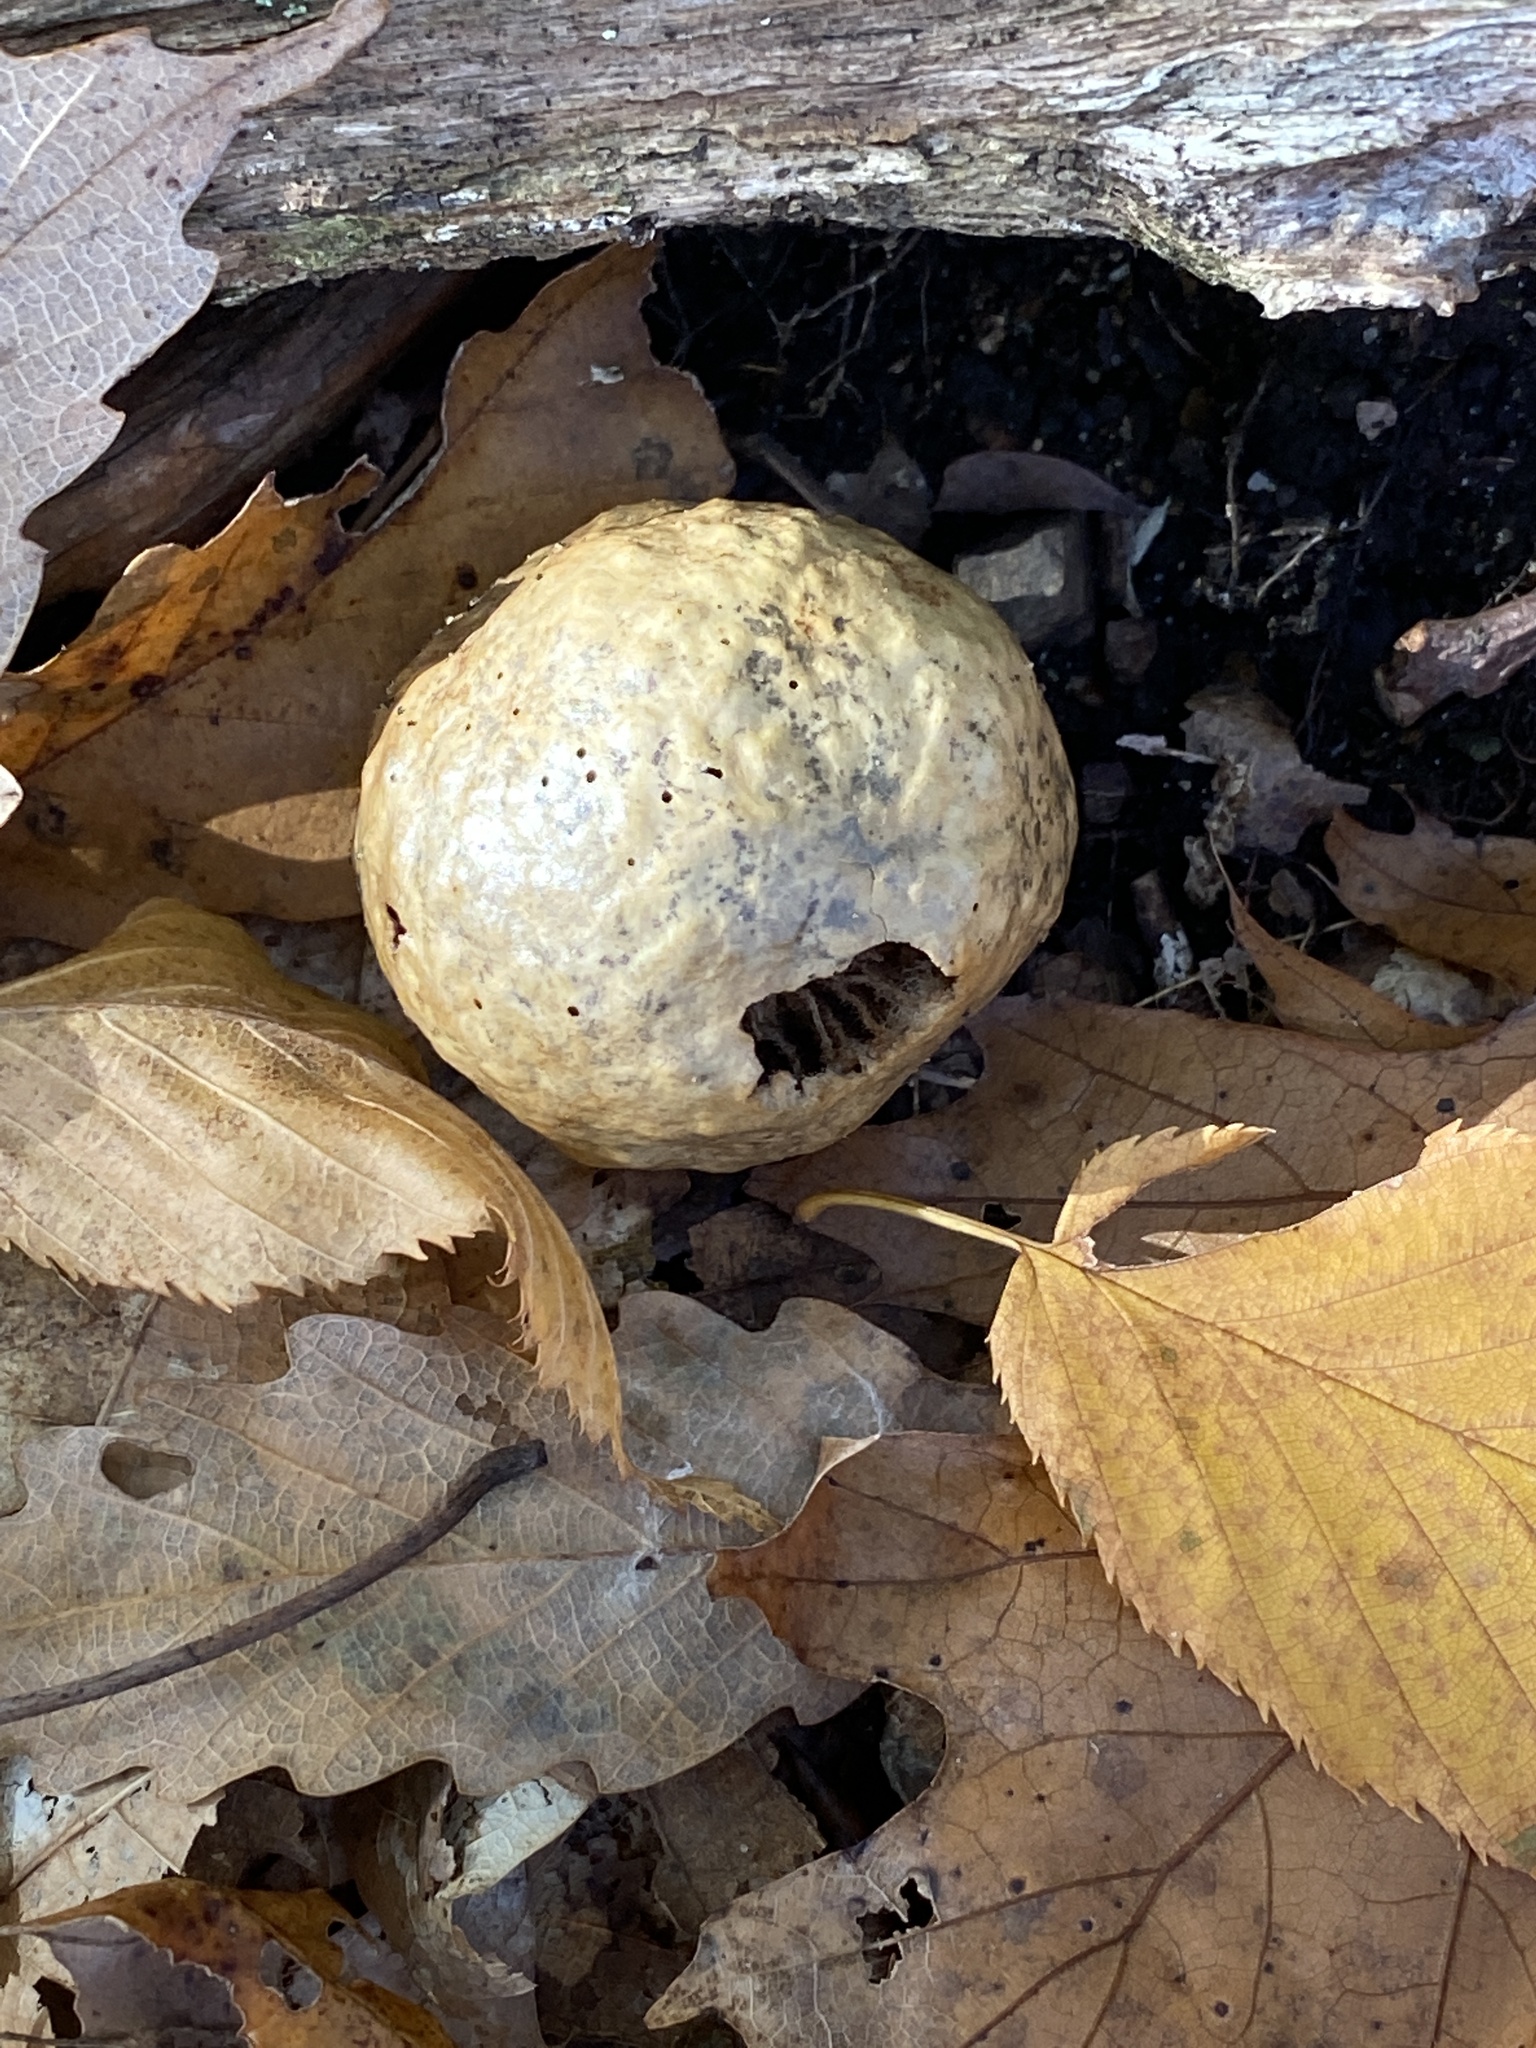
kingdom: Animalia
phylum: Arthropoda
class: Insecta
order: Hymenoptera
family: Cynipidae
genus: Amphibolips
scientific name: Amphibolips
